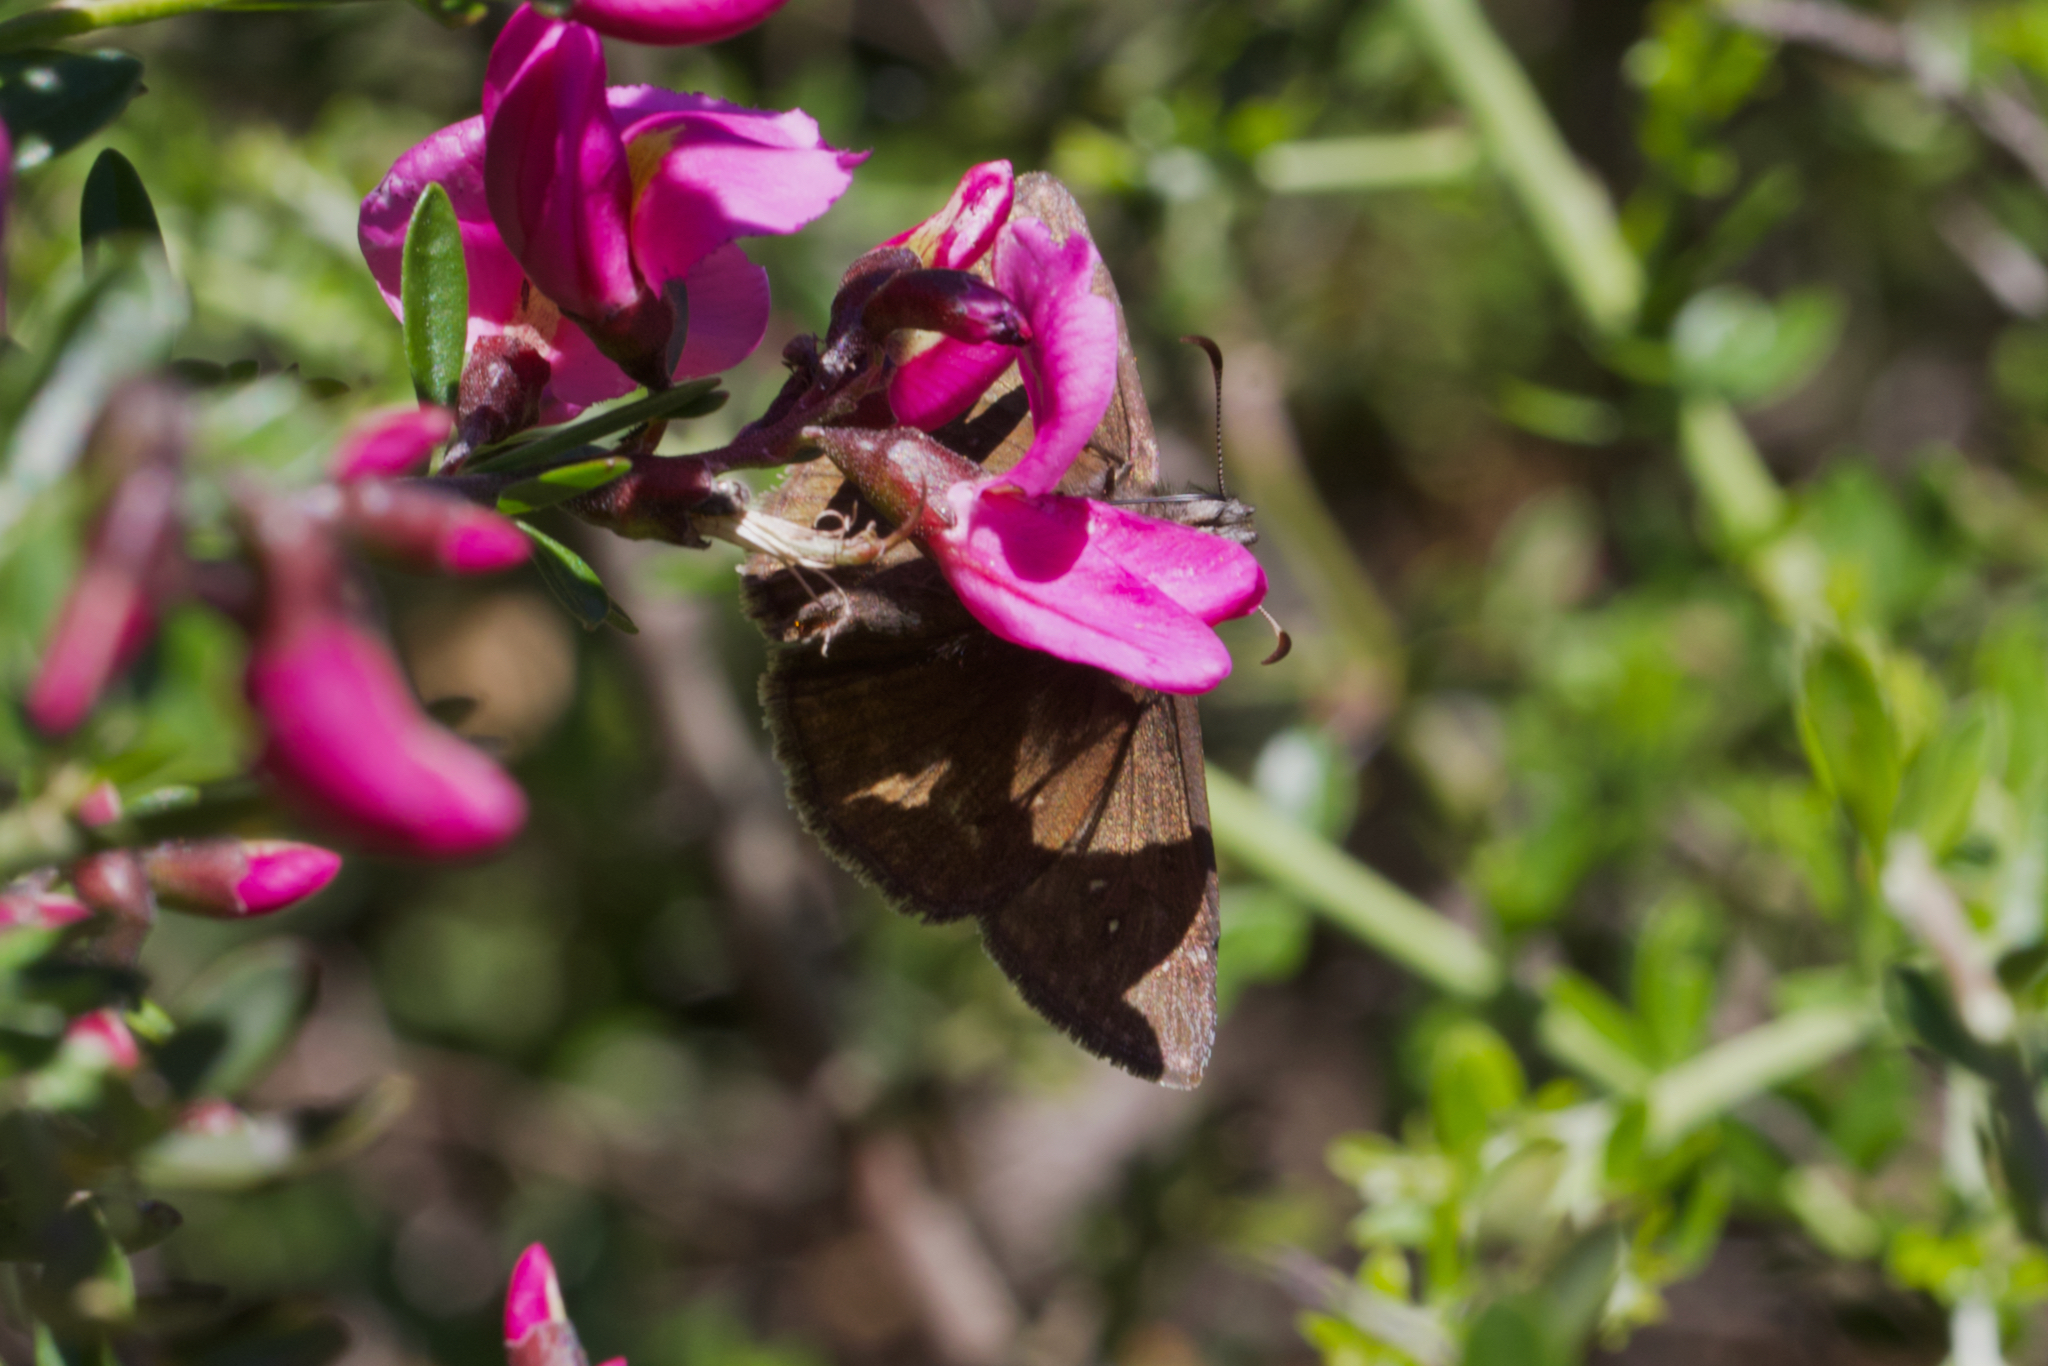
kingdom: Plantae
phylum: Tracheophyta
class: Magnoliopsida
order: Fabales
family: Fabaceae
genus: Pickeringia
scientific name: Pickeringia montana
